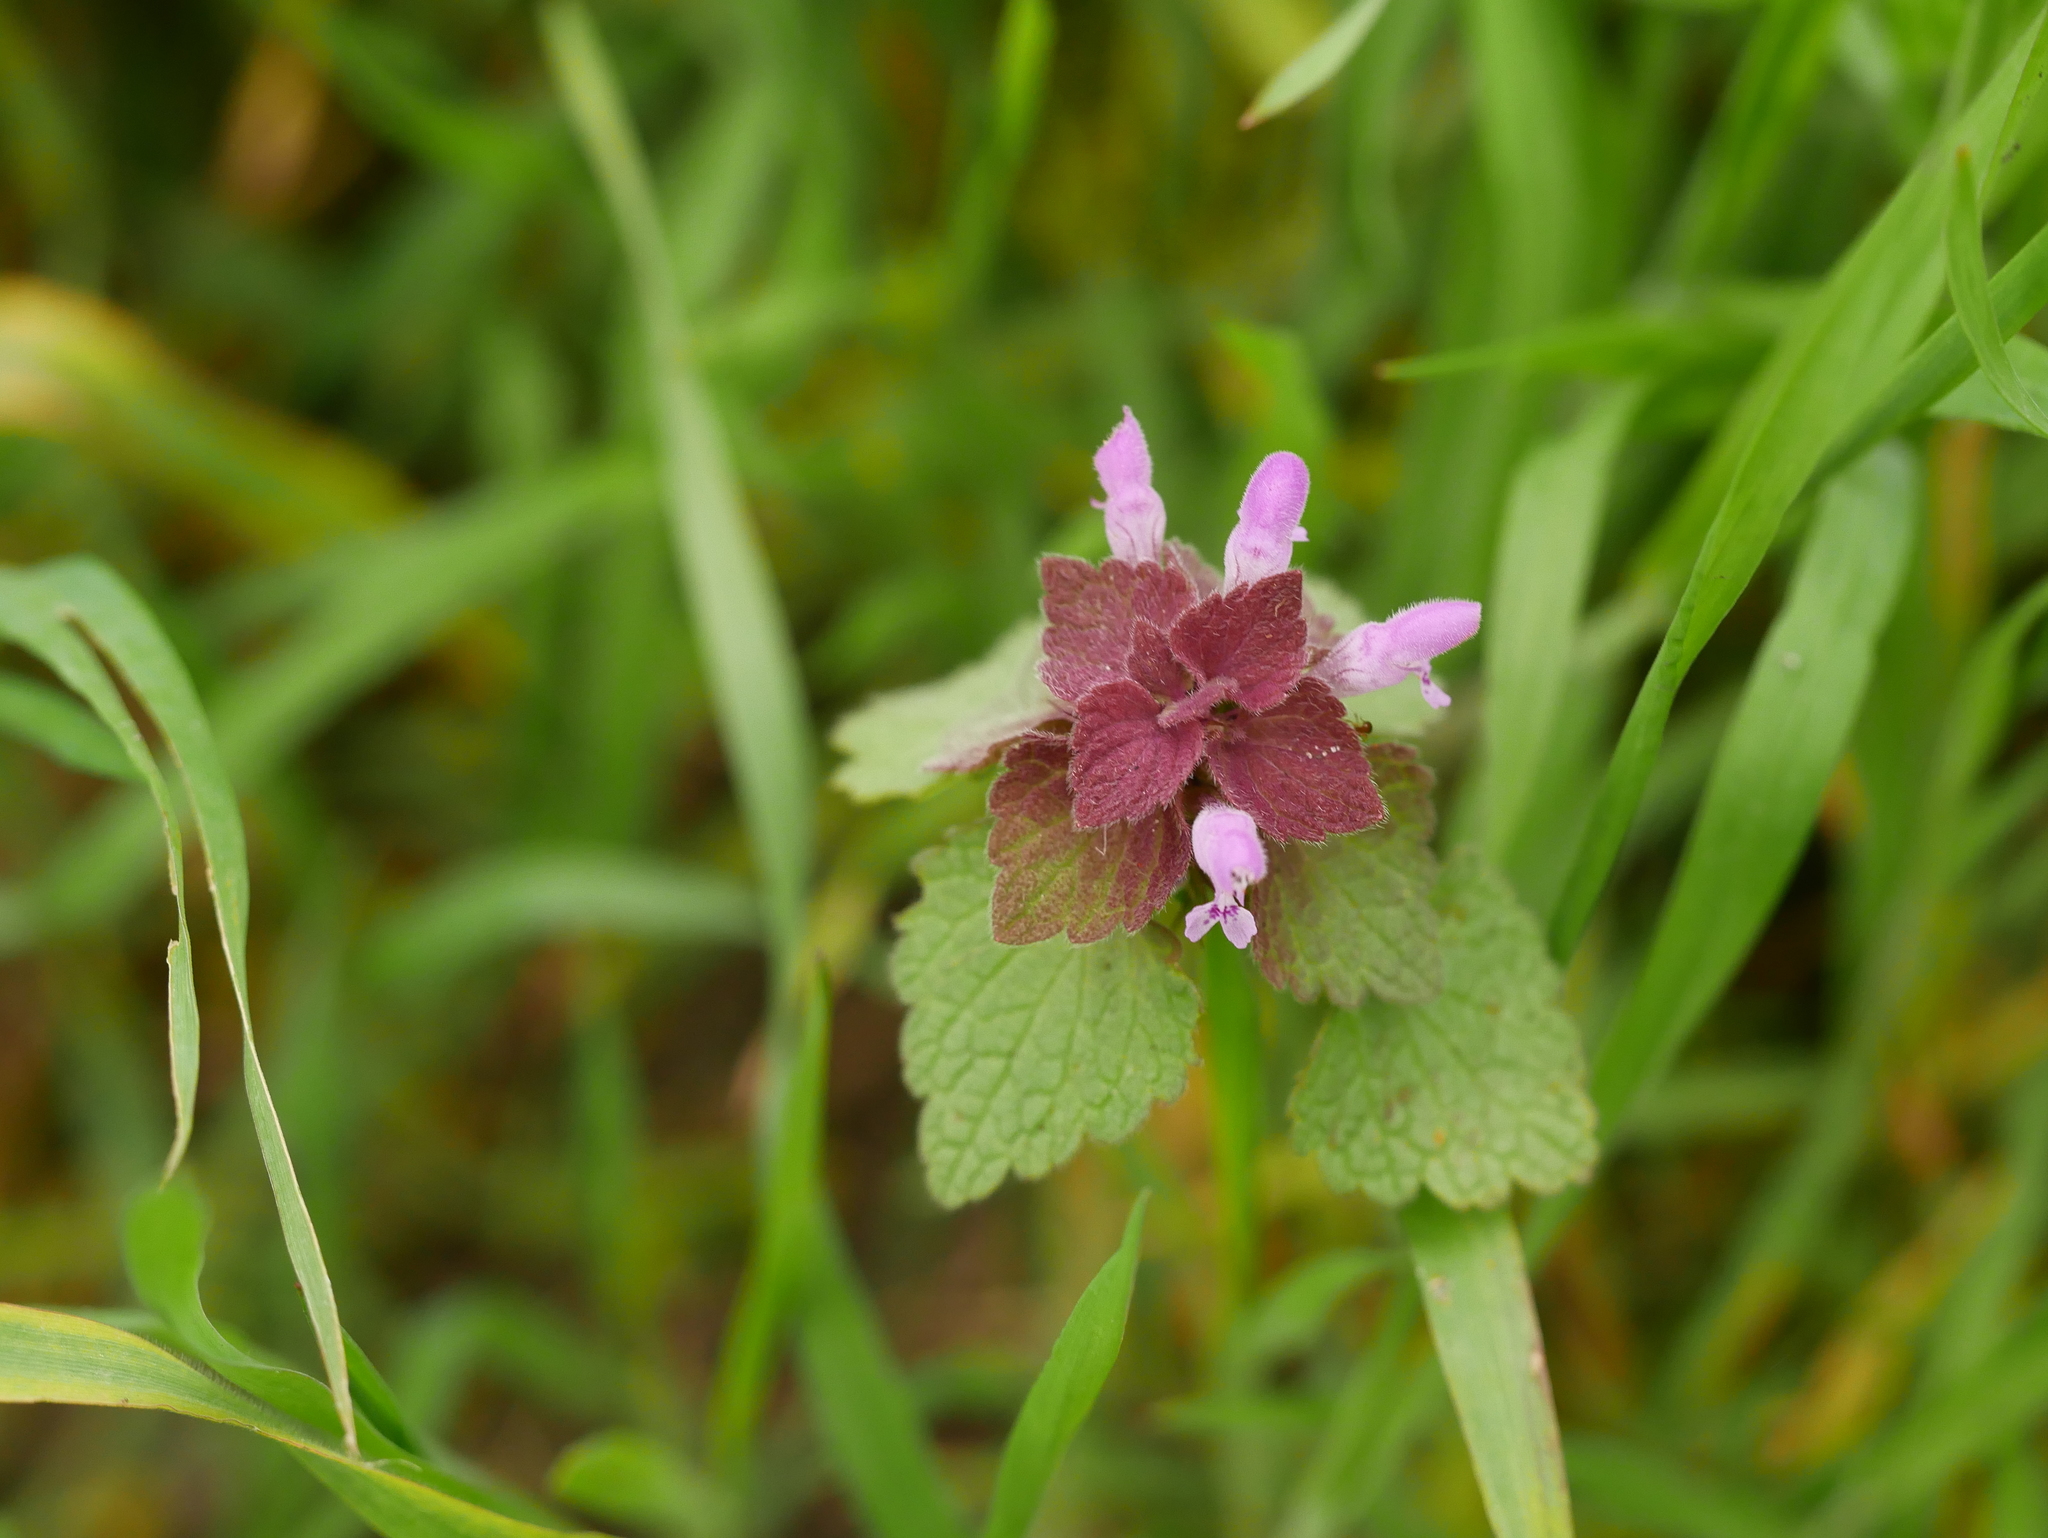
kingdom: Plantae
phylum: Tracheophyta
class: Magnoliopsida
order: Lamiales
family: Lamiaceae
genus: Lamium
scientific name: Lamium purpureum
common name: Red dead-nettle
